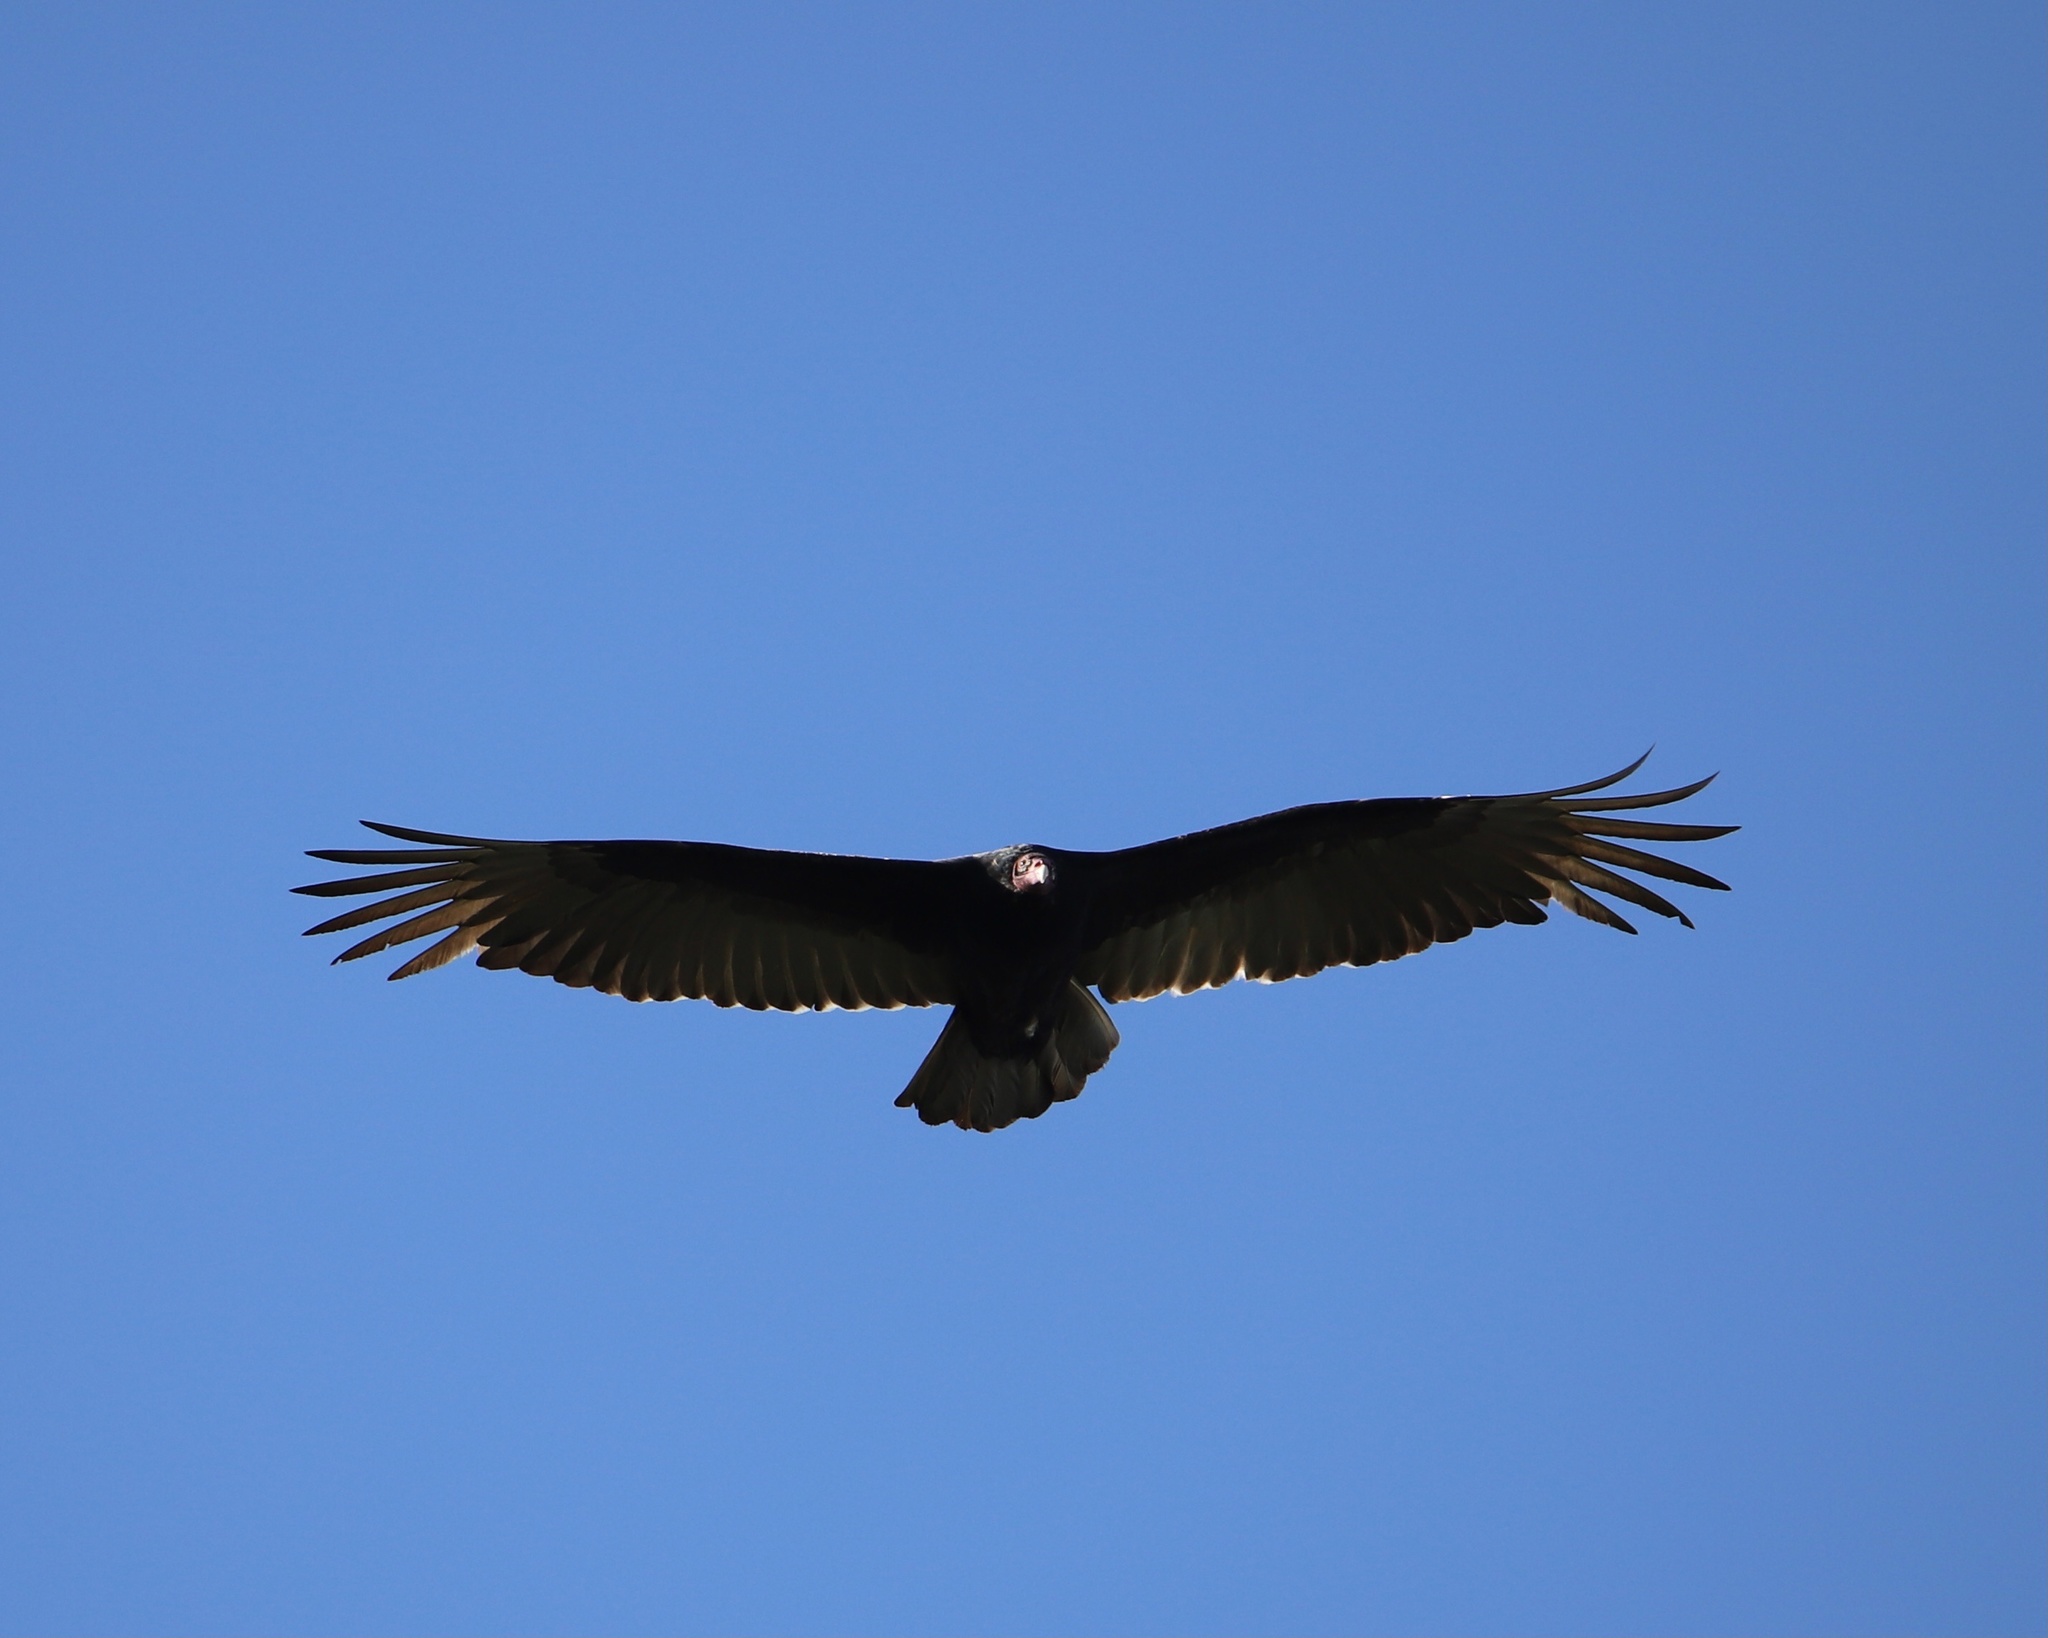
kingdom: Animalia
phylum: Chordata
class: Aves
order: Accipitriformes
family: Cathartidae
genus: Cathartes
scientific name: Cathartes aura
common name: Turkey vulture
